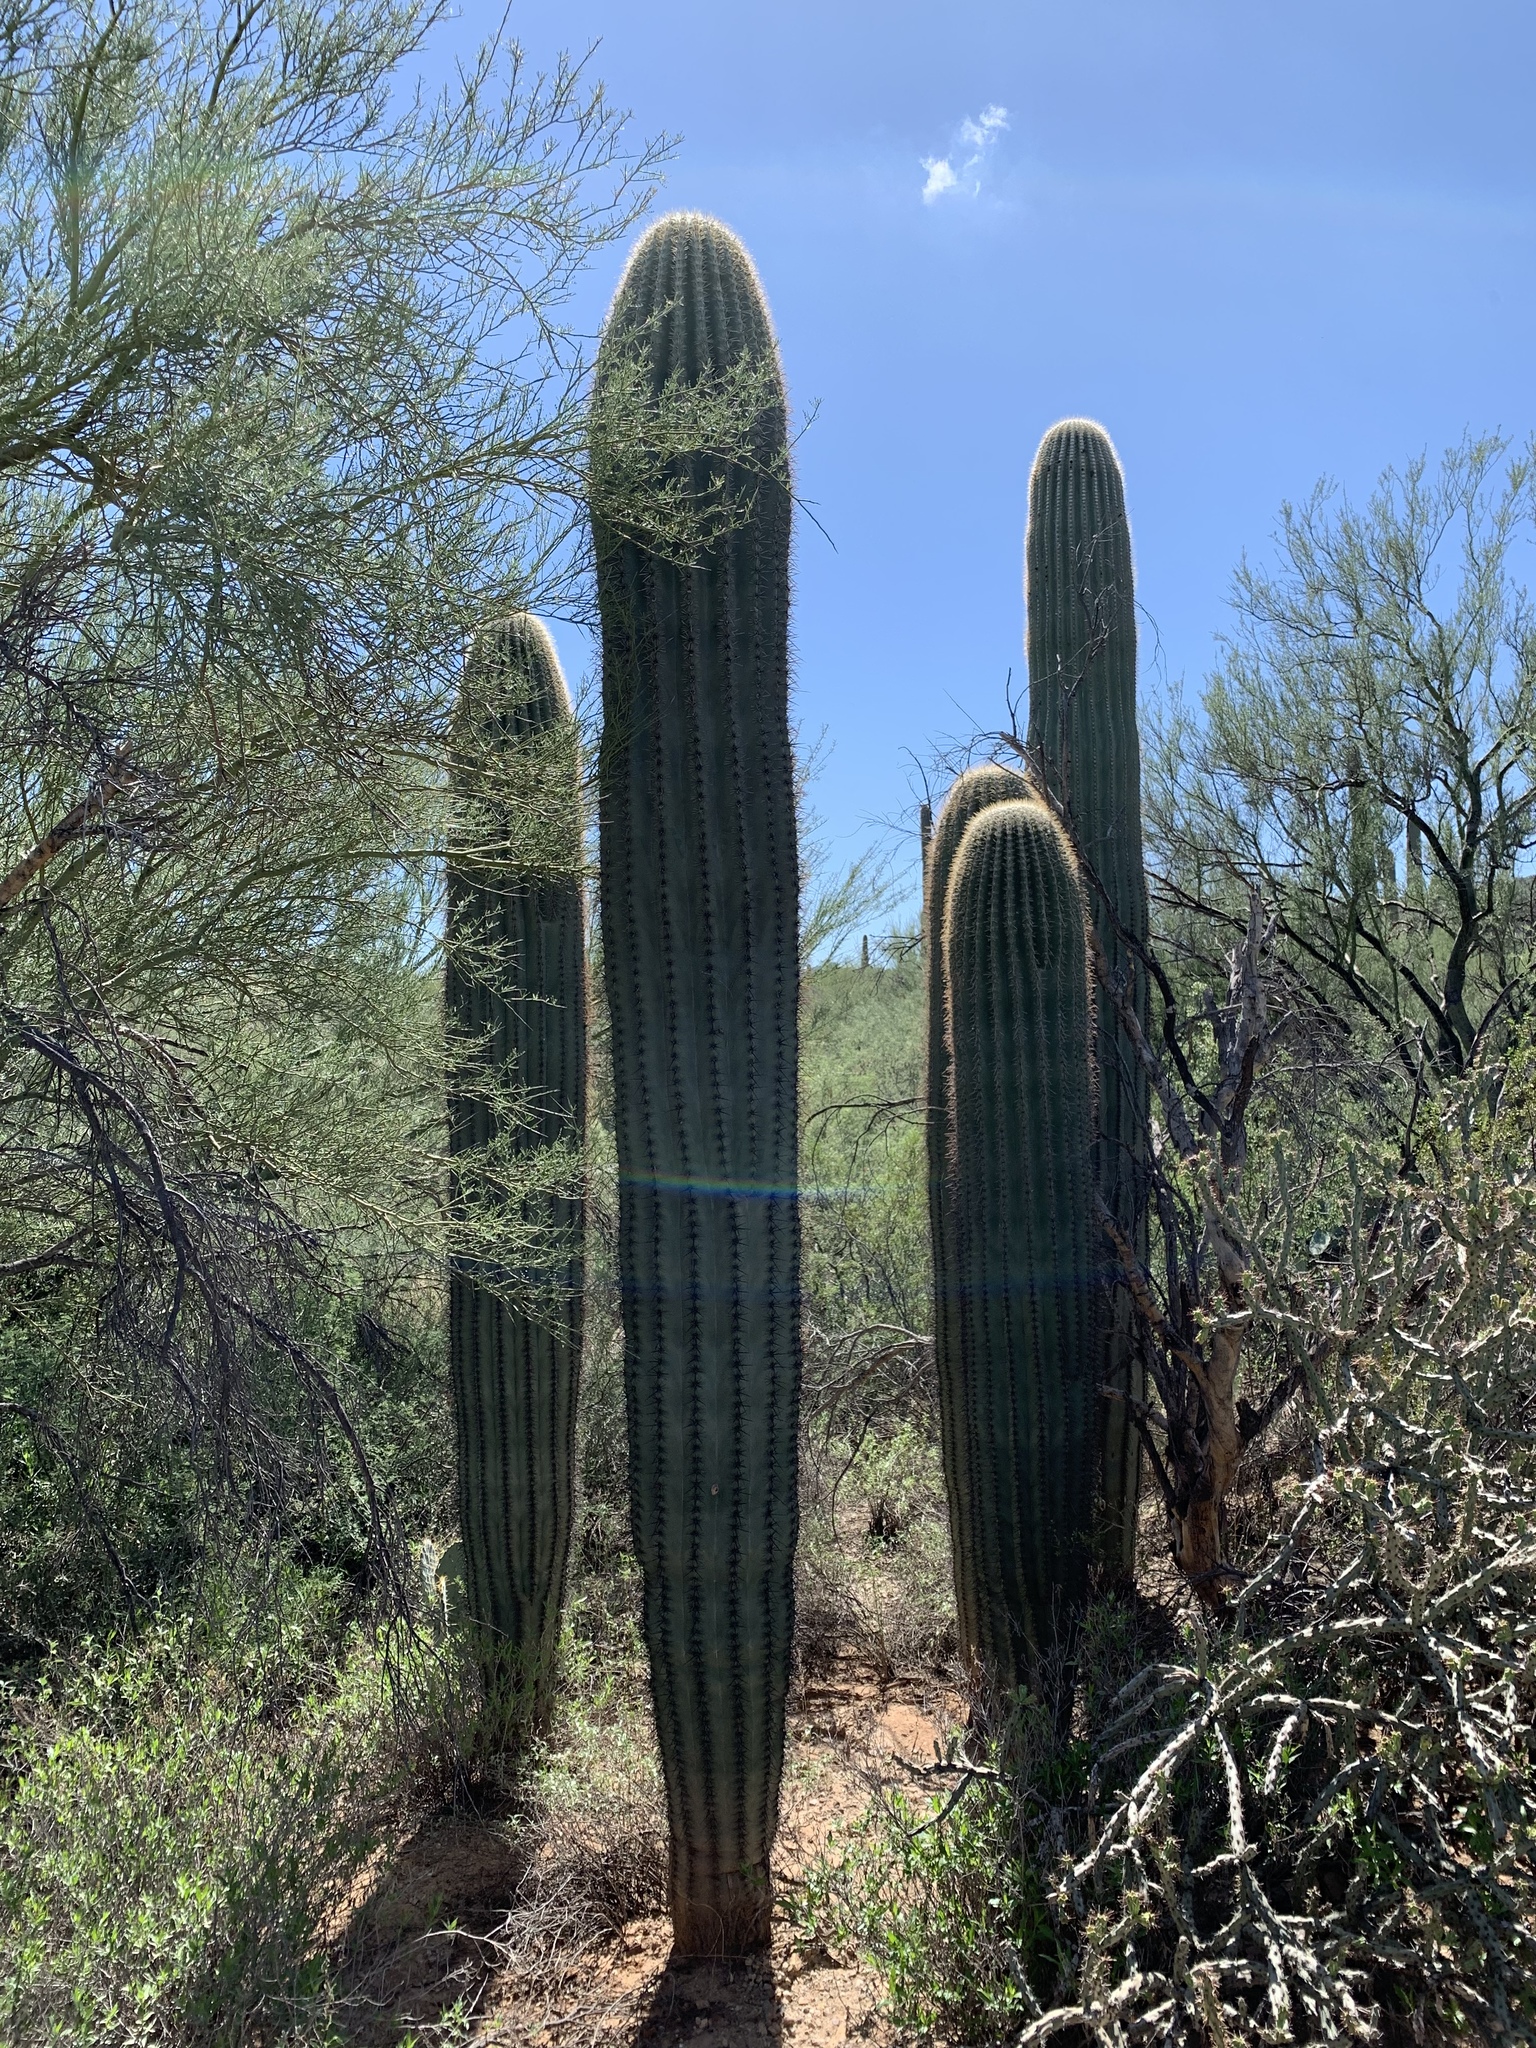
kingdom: Plantae
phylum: Tracheophyta
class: Magnoliopsida
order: Caryophyllales
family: Cactaceae
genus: Carnegiea
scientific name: Carnegiea gigantea
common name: Saguaro
